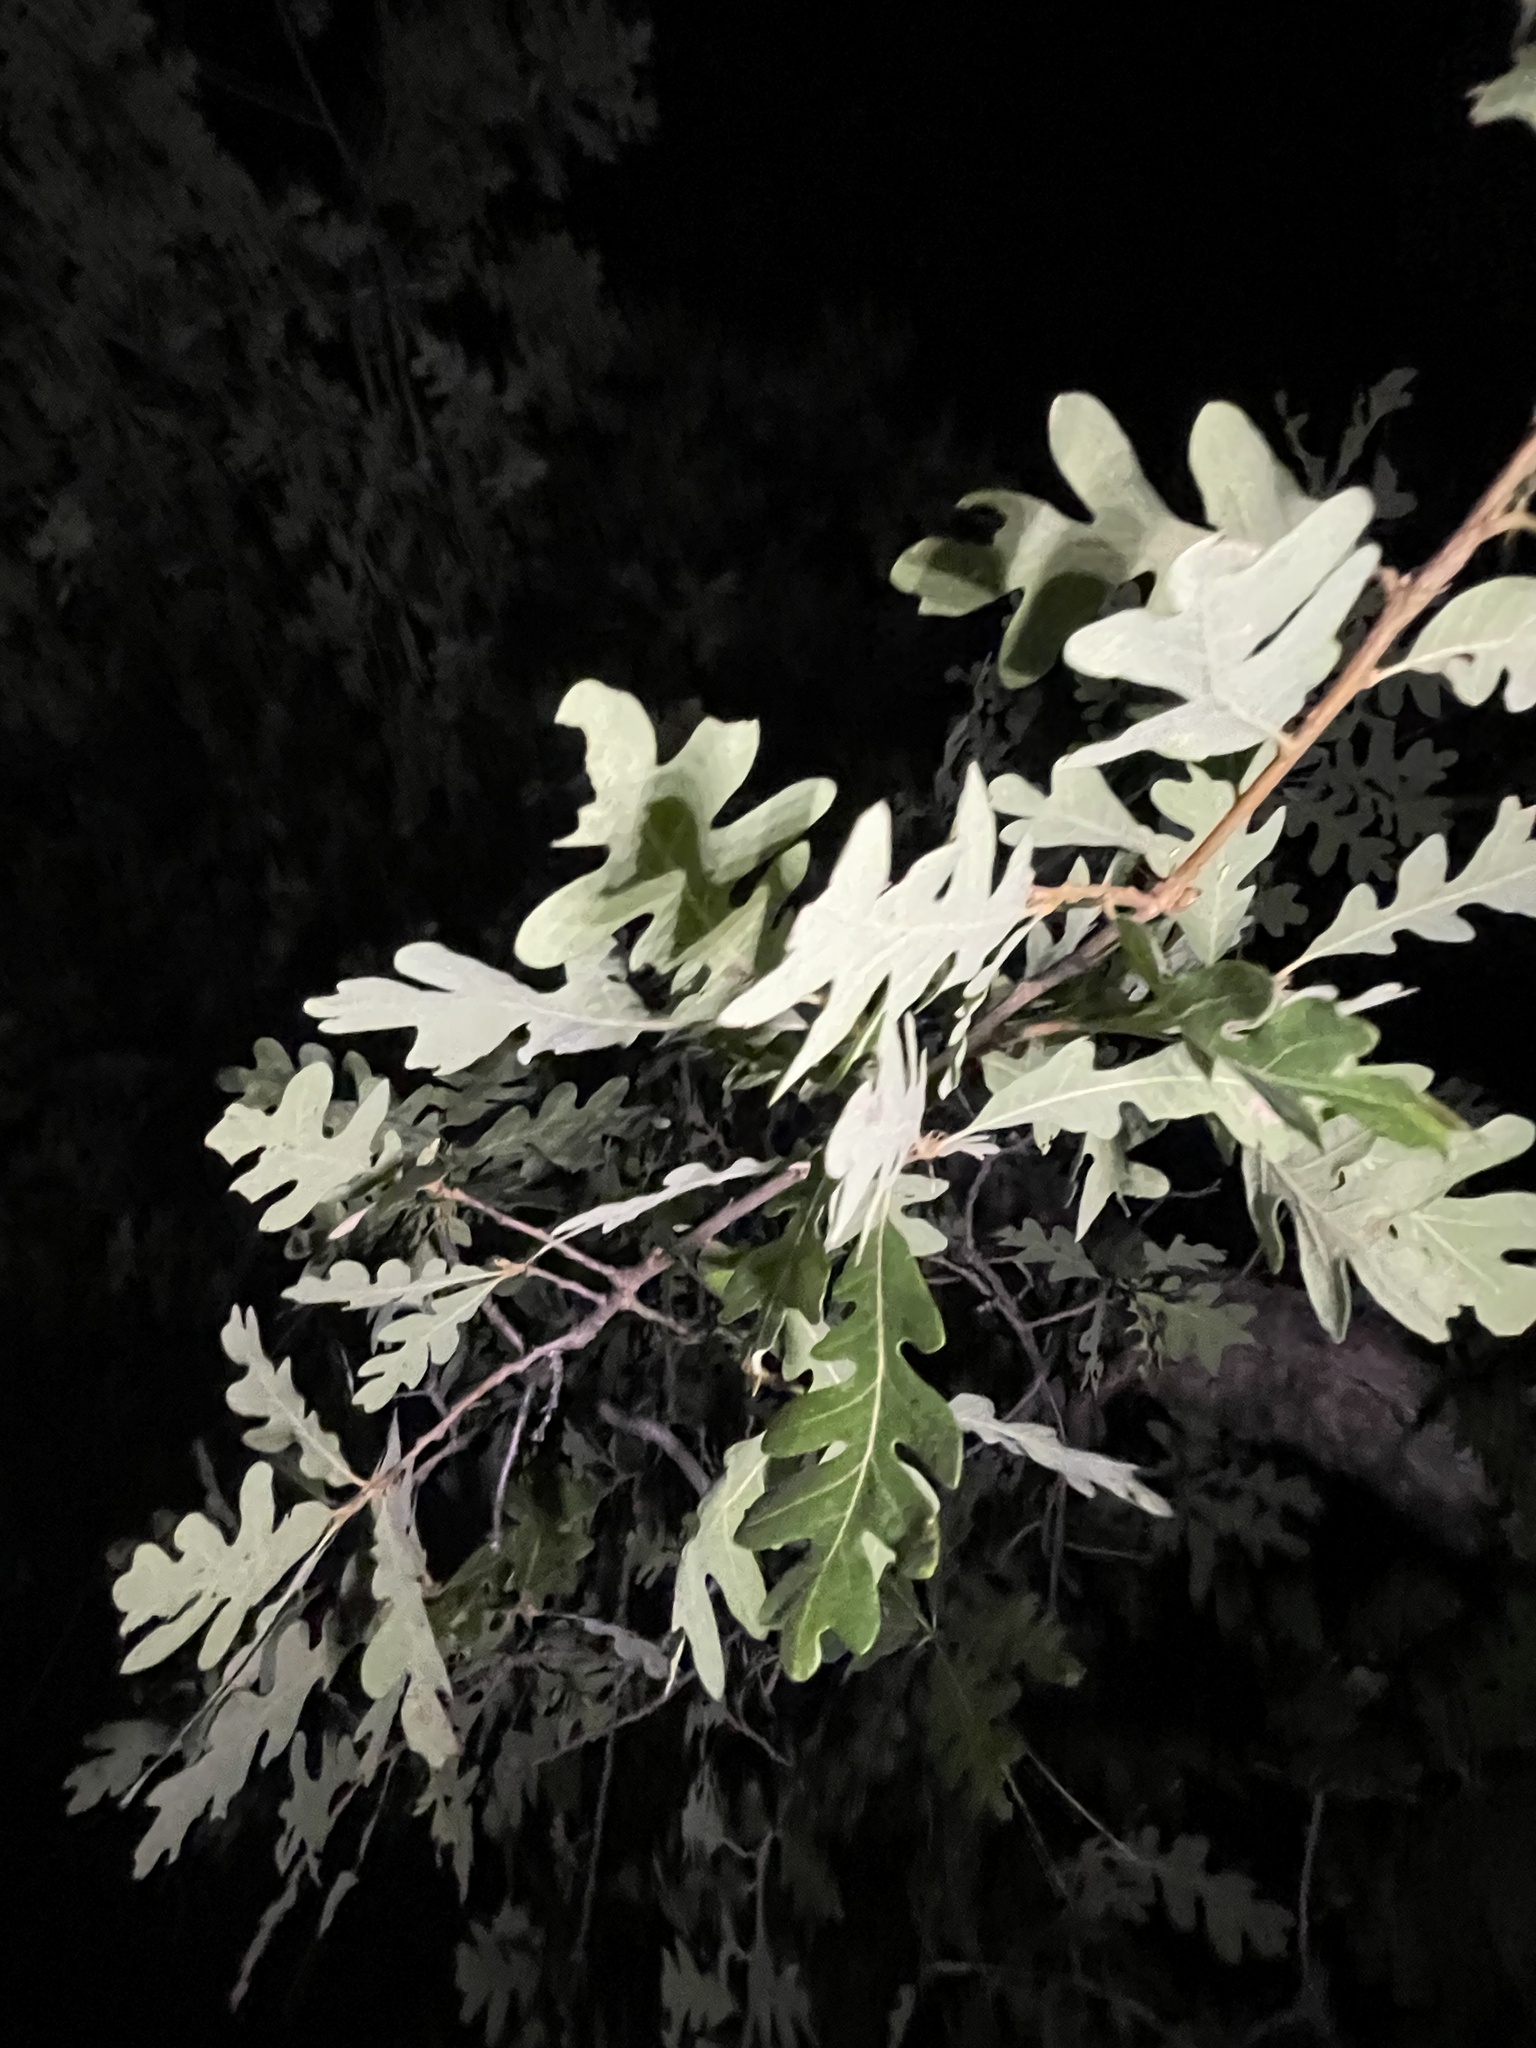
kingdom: Plantae
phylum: Tracheophyta
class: Magnoliopsida
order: Fagales
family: Fagaceae
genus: Quercus
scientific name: Quercus gambelii
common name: Gambel oak
